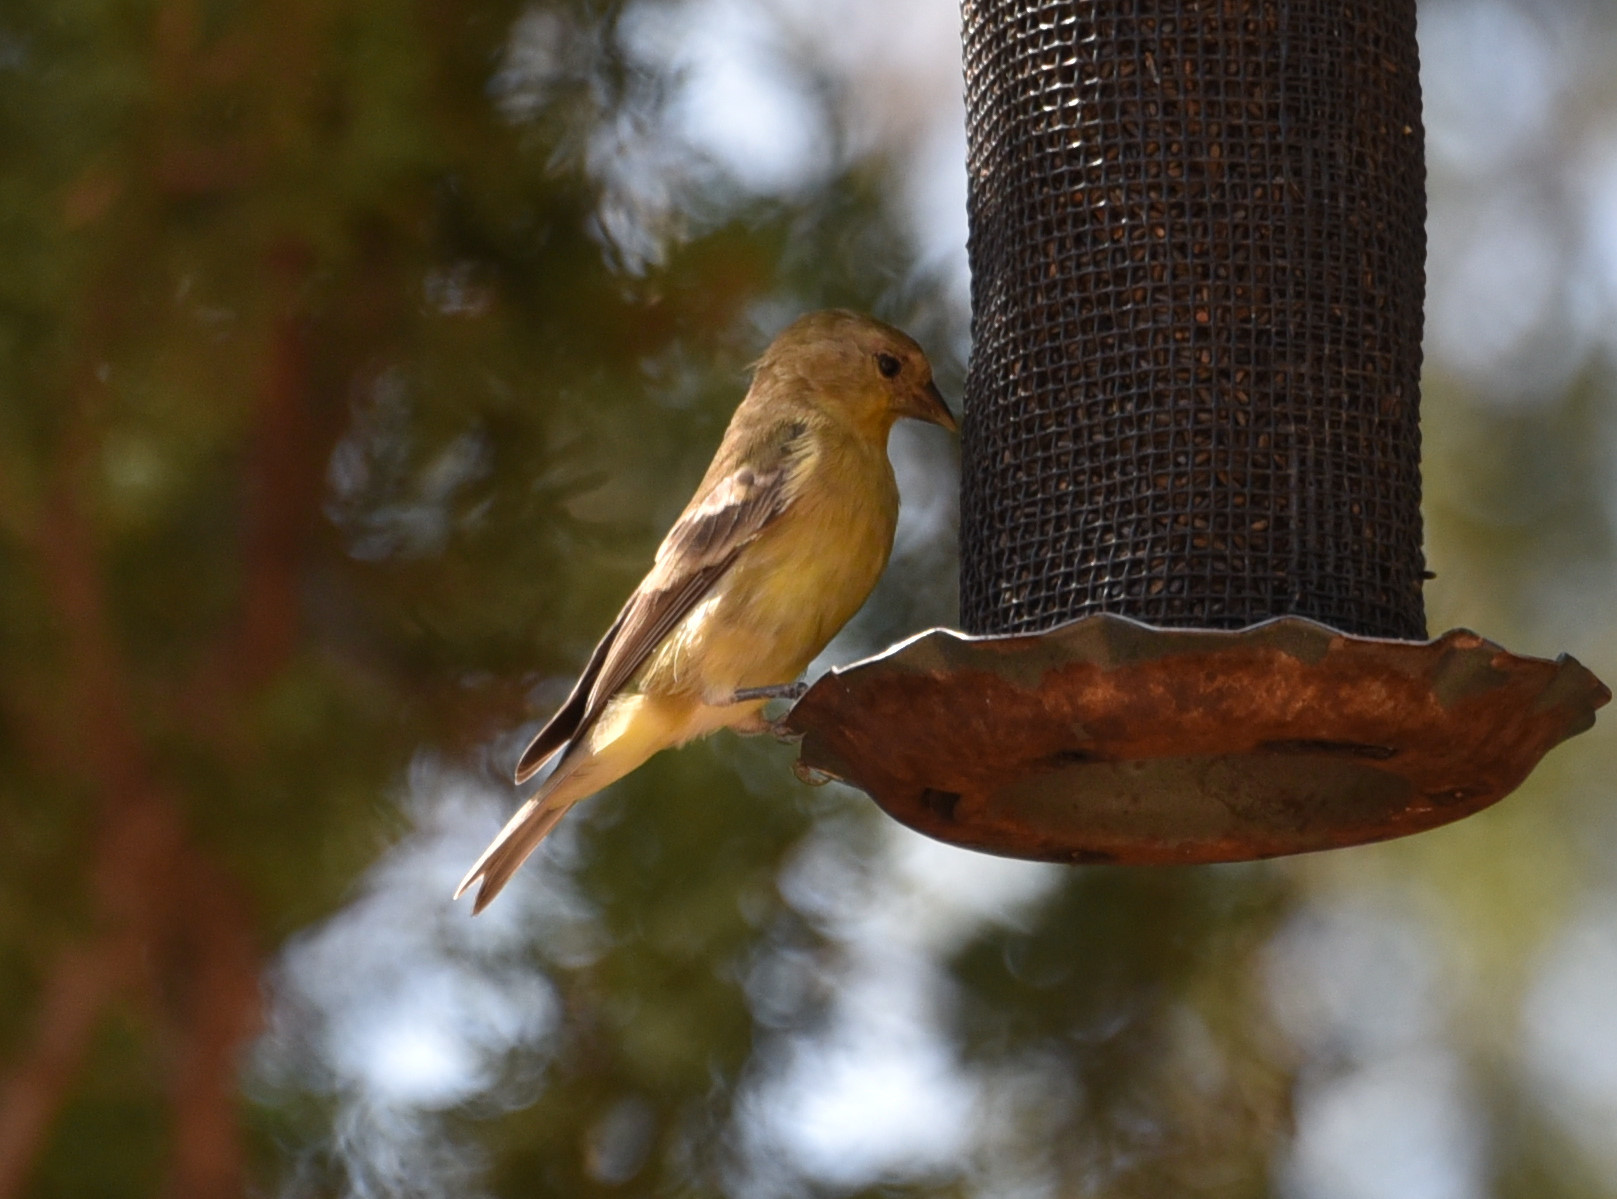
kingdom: Animalia
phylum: Chordata
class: Aves
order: Passeriformes
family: Fringillidae
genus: Spinus
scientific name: Spinus psaltria
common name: Lesser goldfinch
